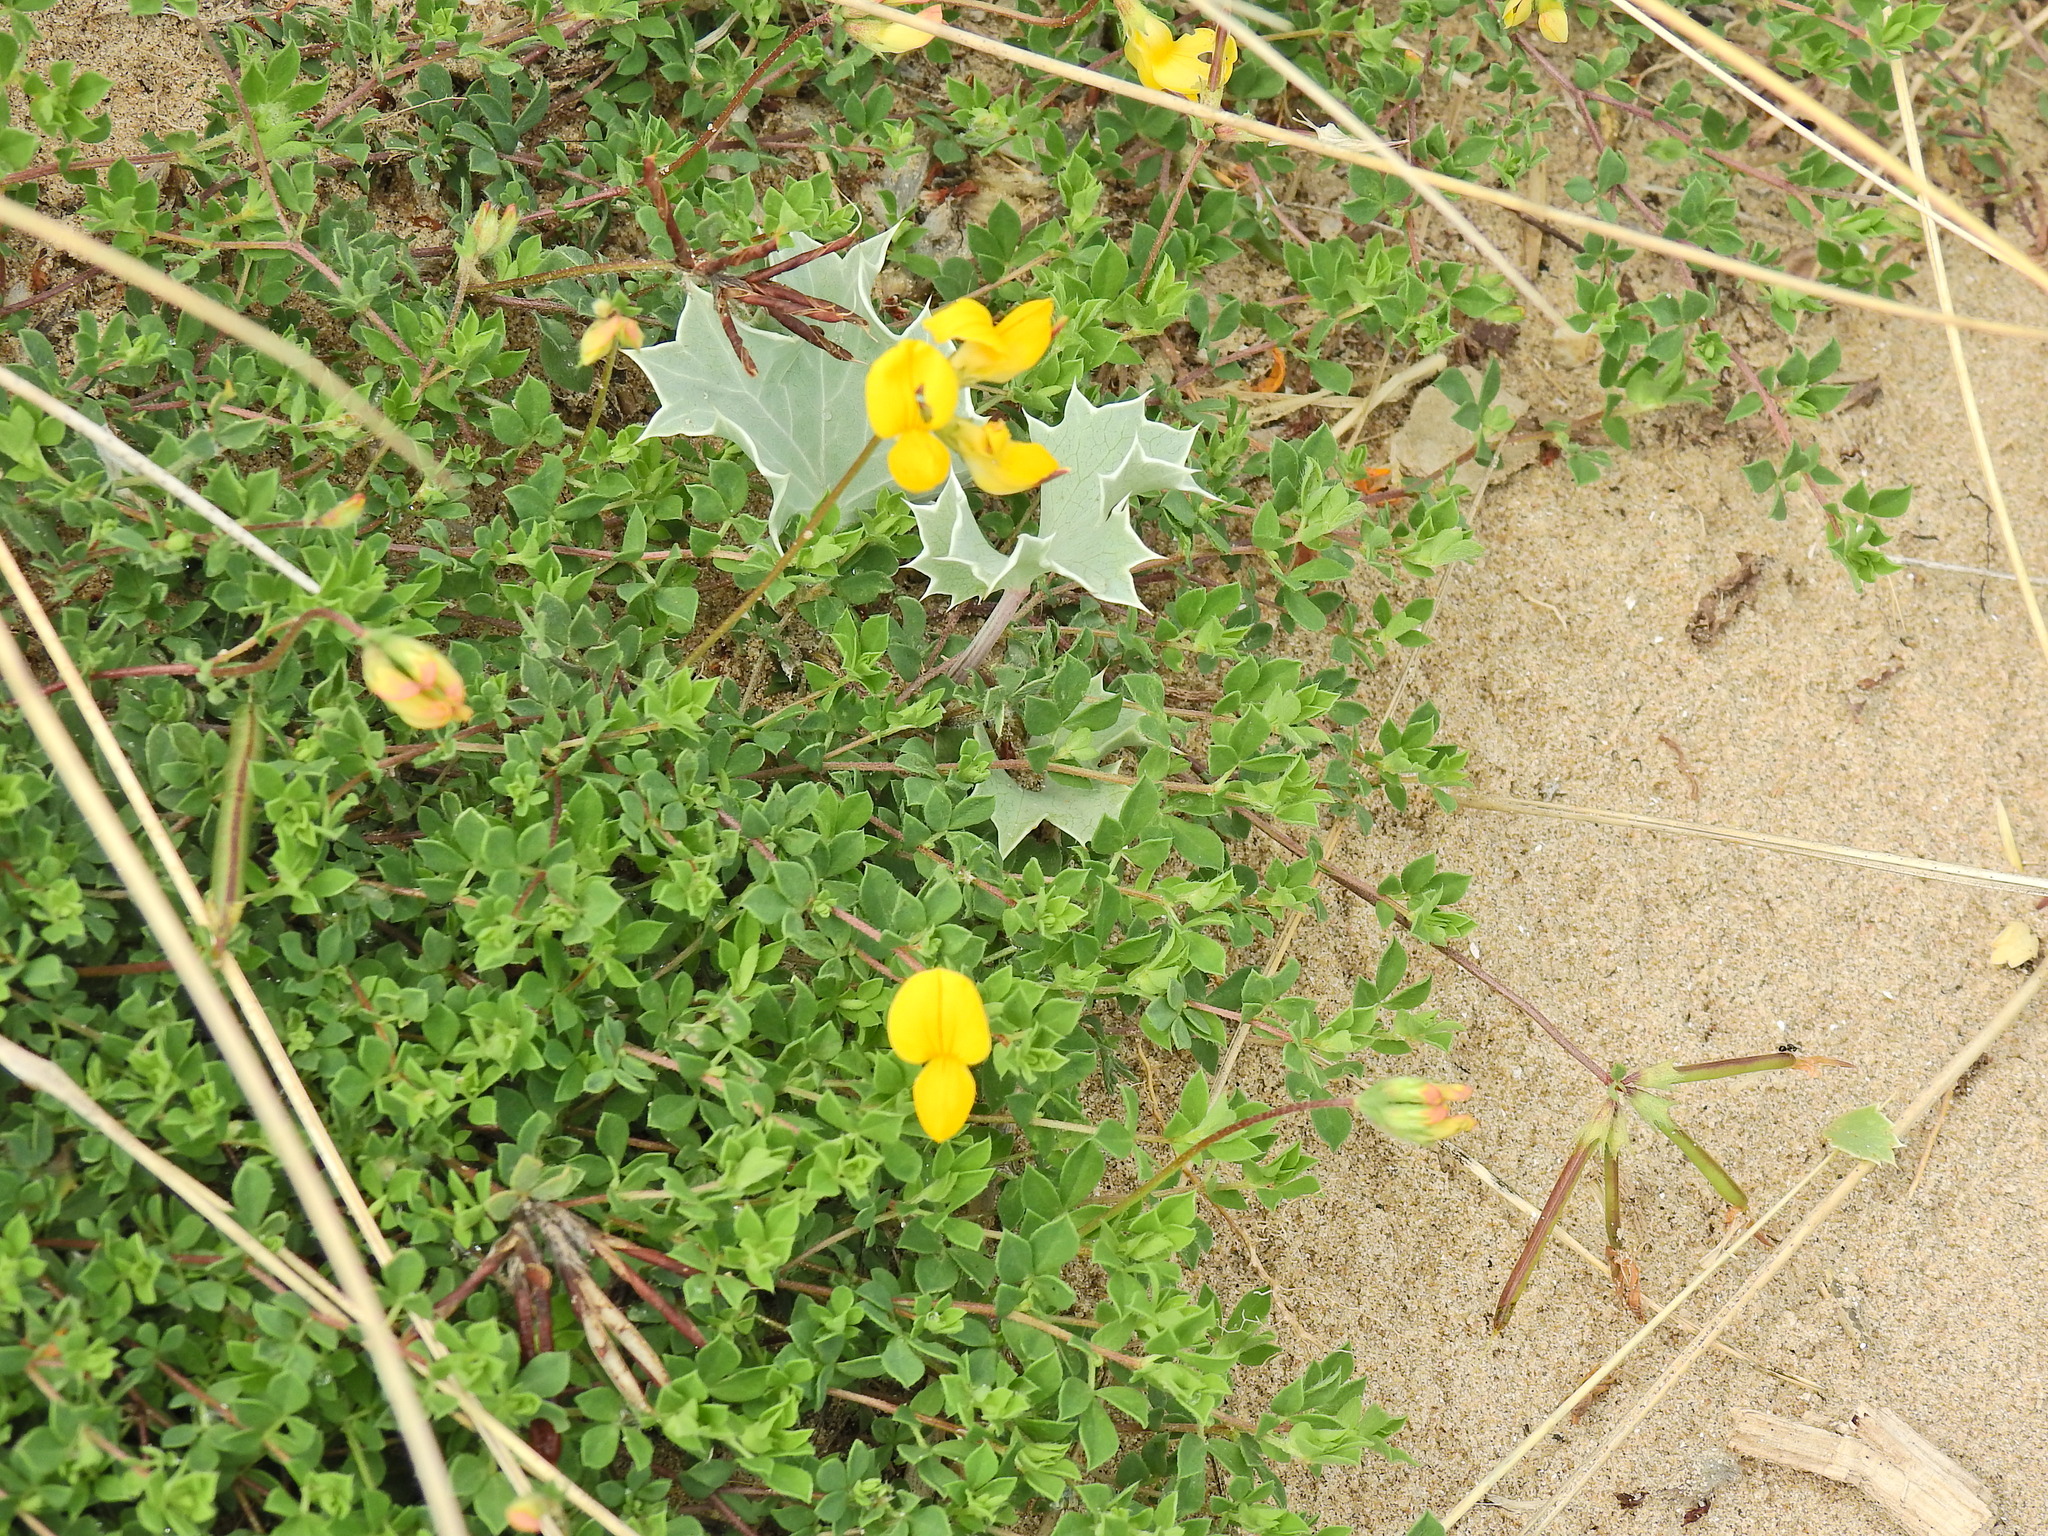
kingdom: Plantae
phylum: Tracheophyta
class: Magnoliopsida
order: Fabales
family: Fabaceae
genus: Lotus
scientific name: Lotus corniculatus
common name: Common bird's-foot-trefoil
